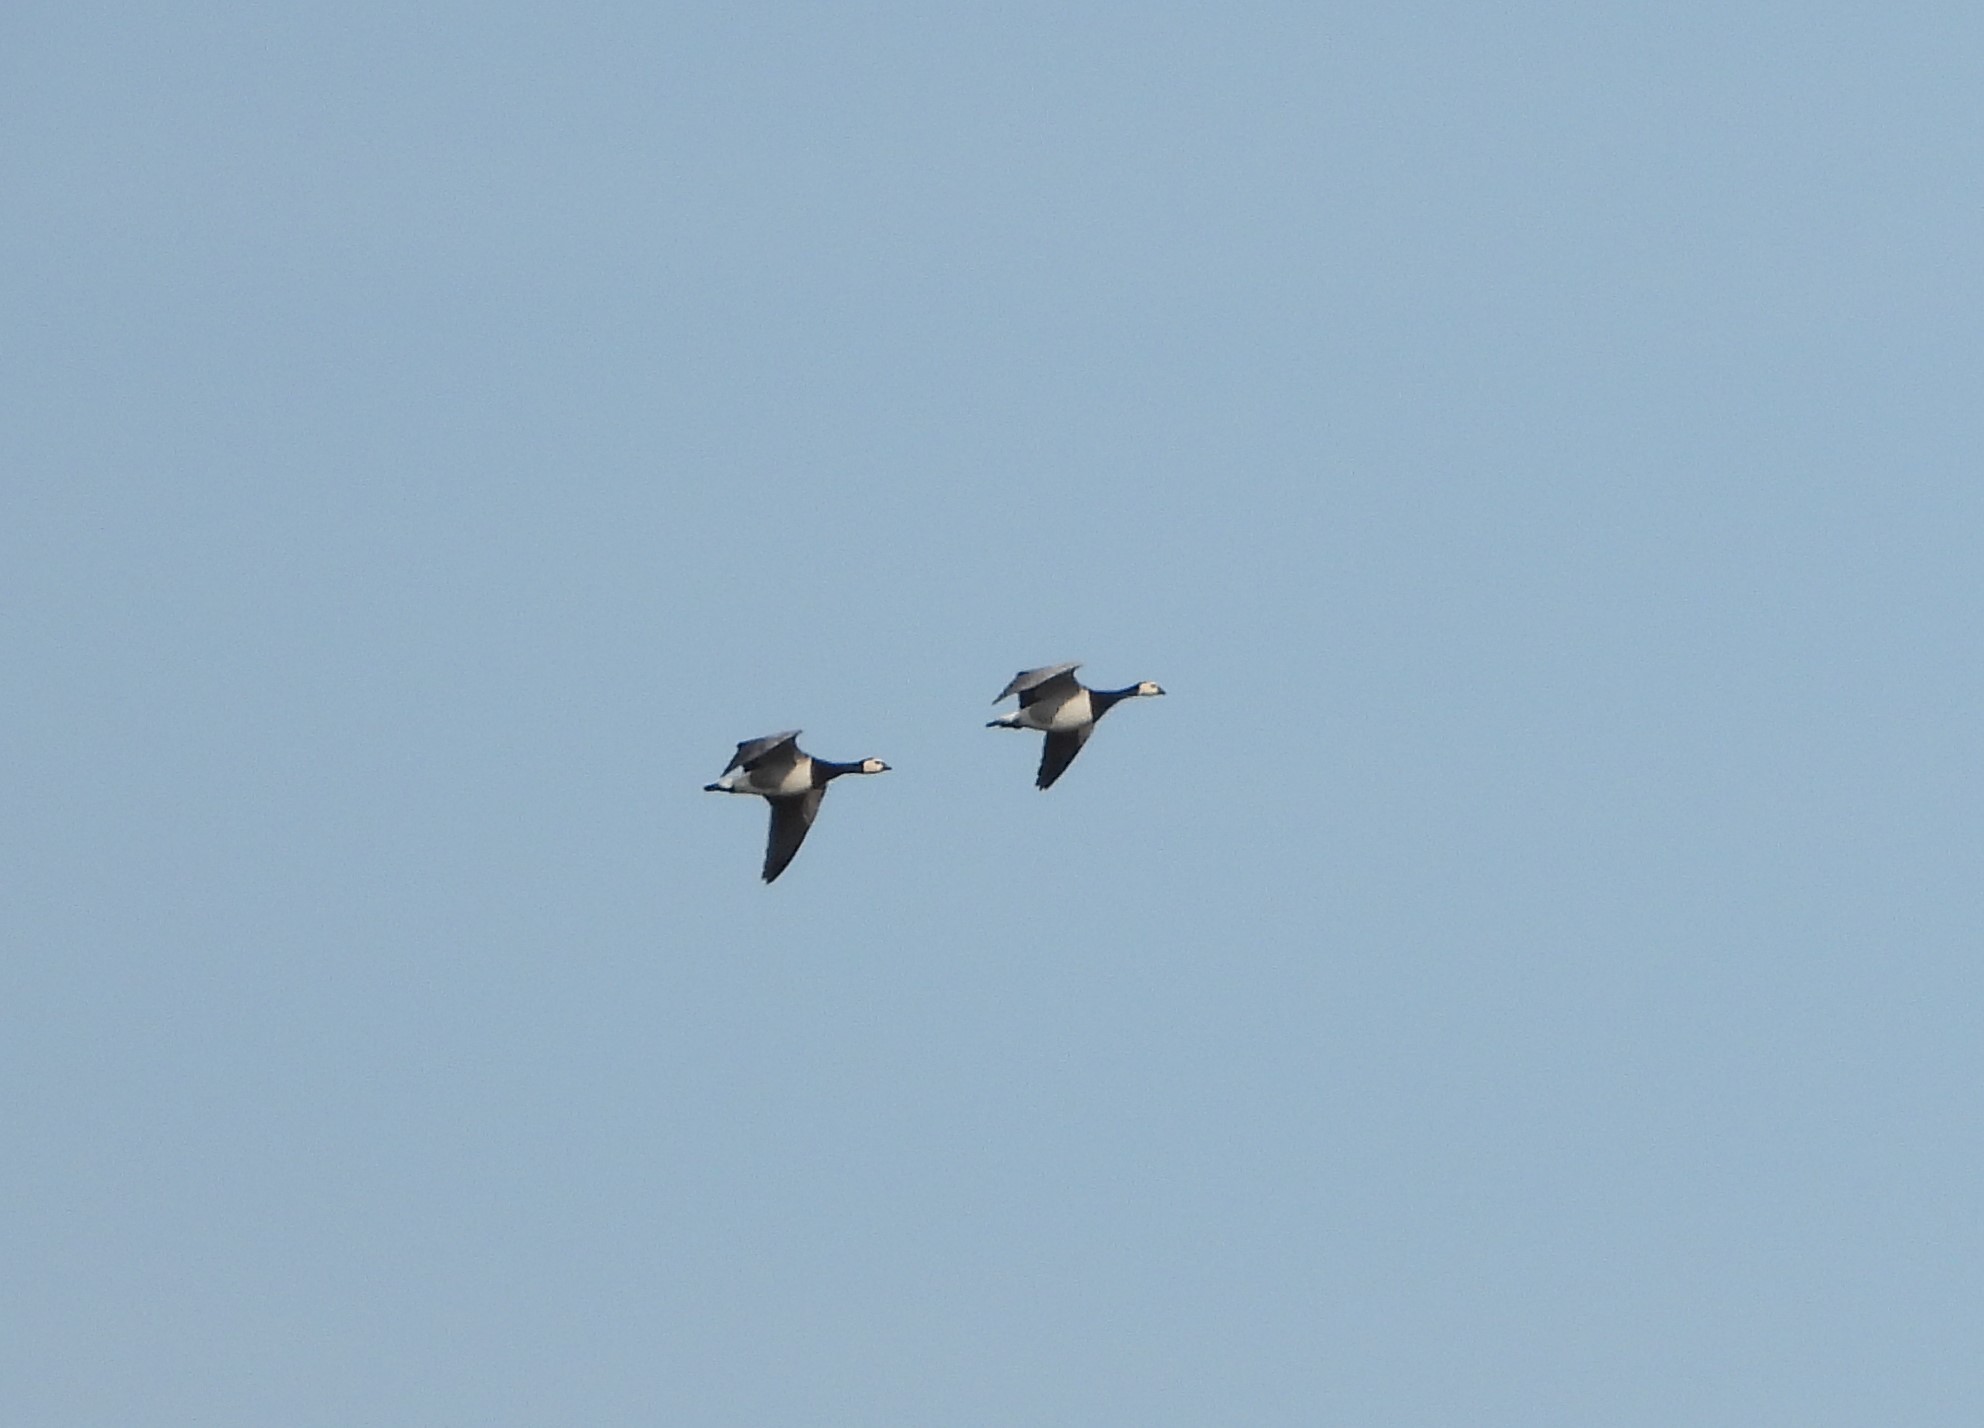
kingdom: Animalia
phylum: Chordata
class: Aves
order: Anseriformes
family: Anatidae
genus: Branta
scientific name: Branta leucopsis
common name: Barnacle goose
